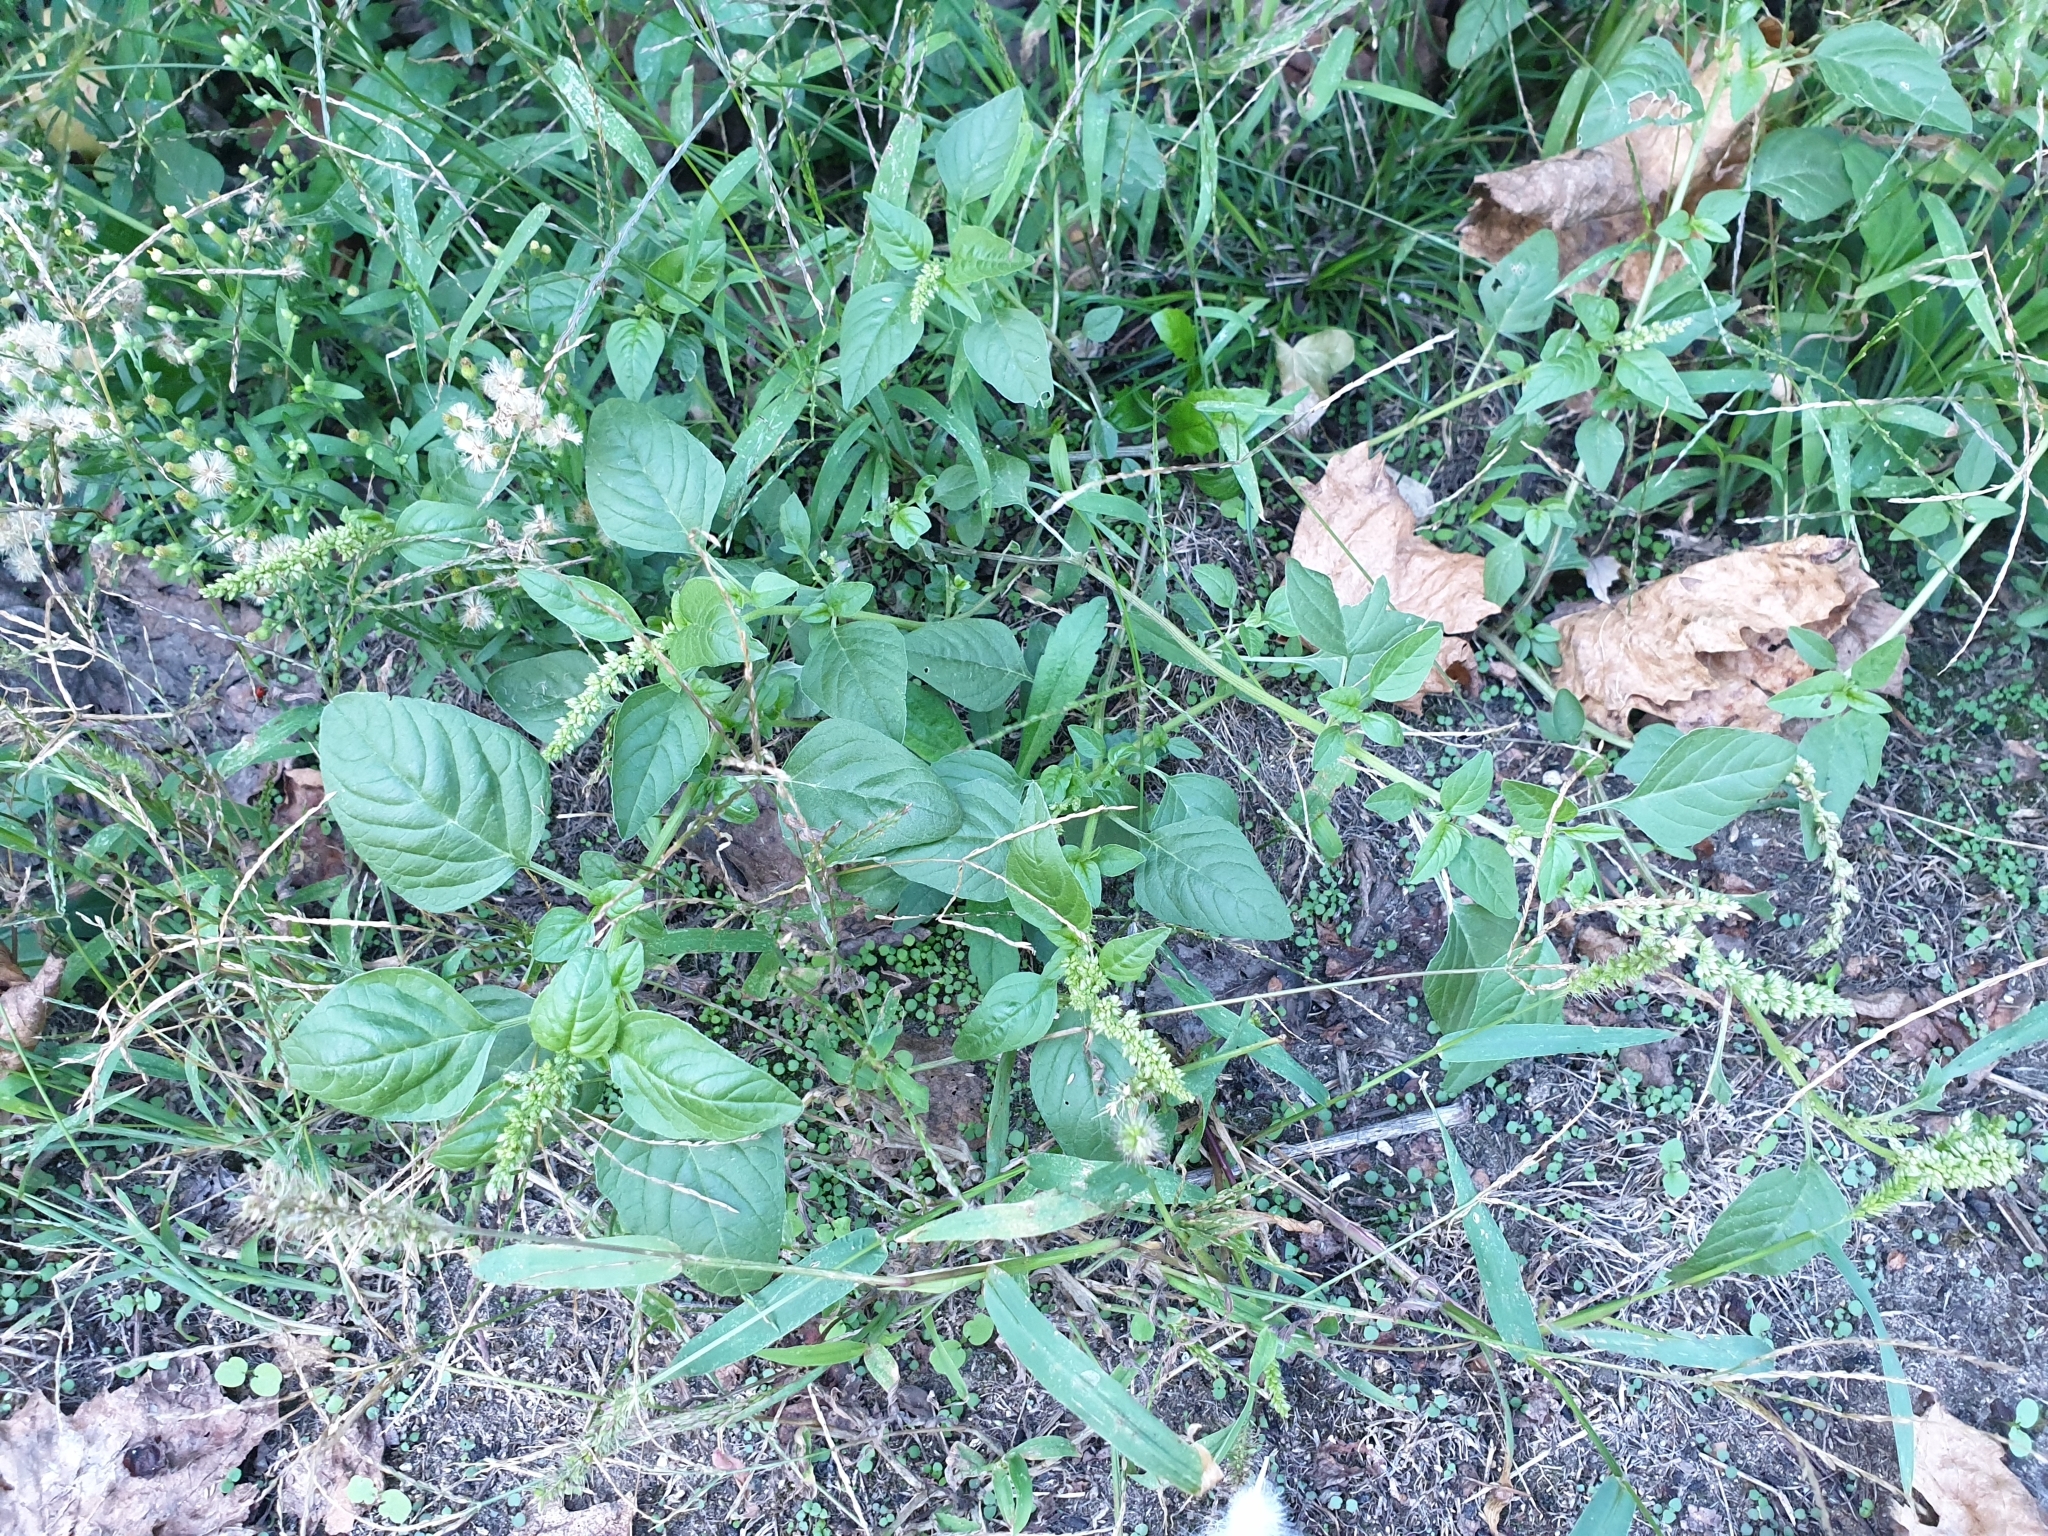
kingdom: Plantae
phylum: Tracheophyta
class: Magnoliopsida
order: Caryophyllales
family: Amaranthaceae
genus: Amaranthus
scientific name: Amaranthus deflexus
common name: Perennial pigweed
